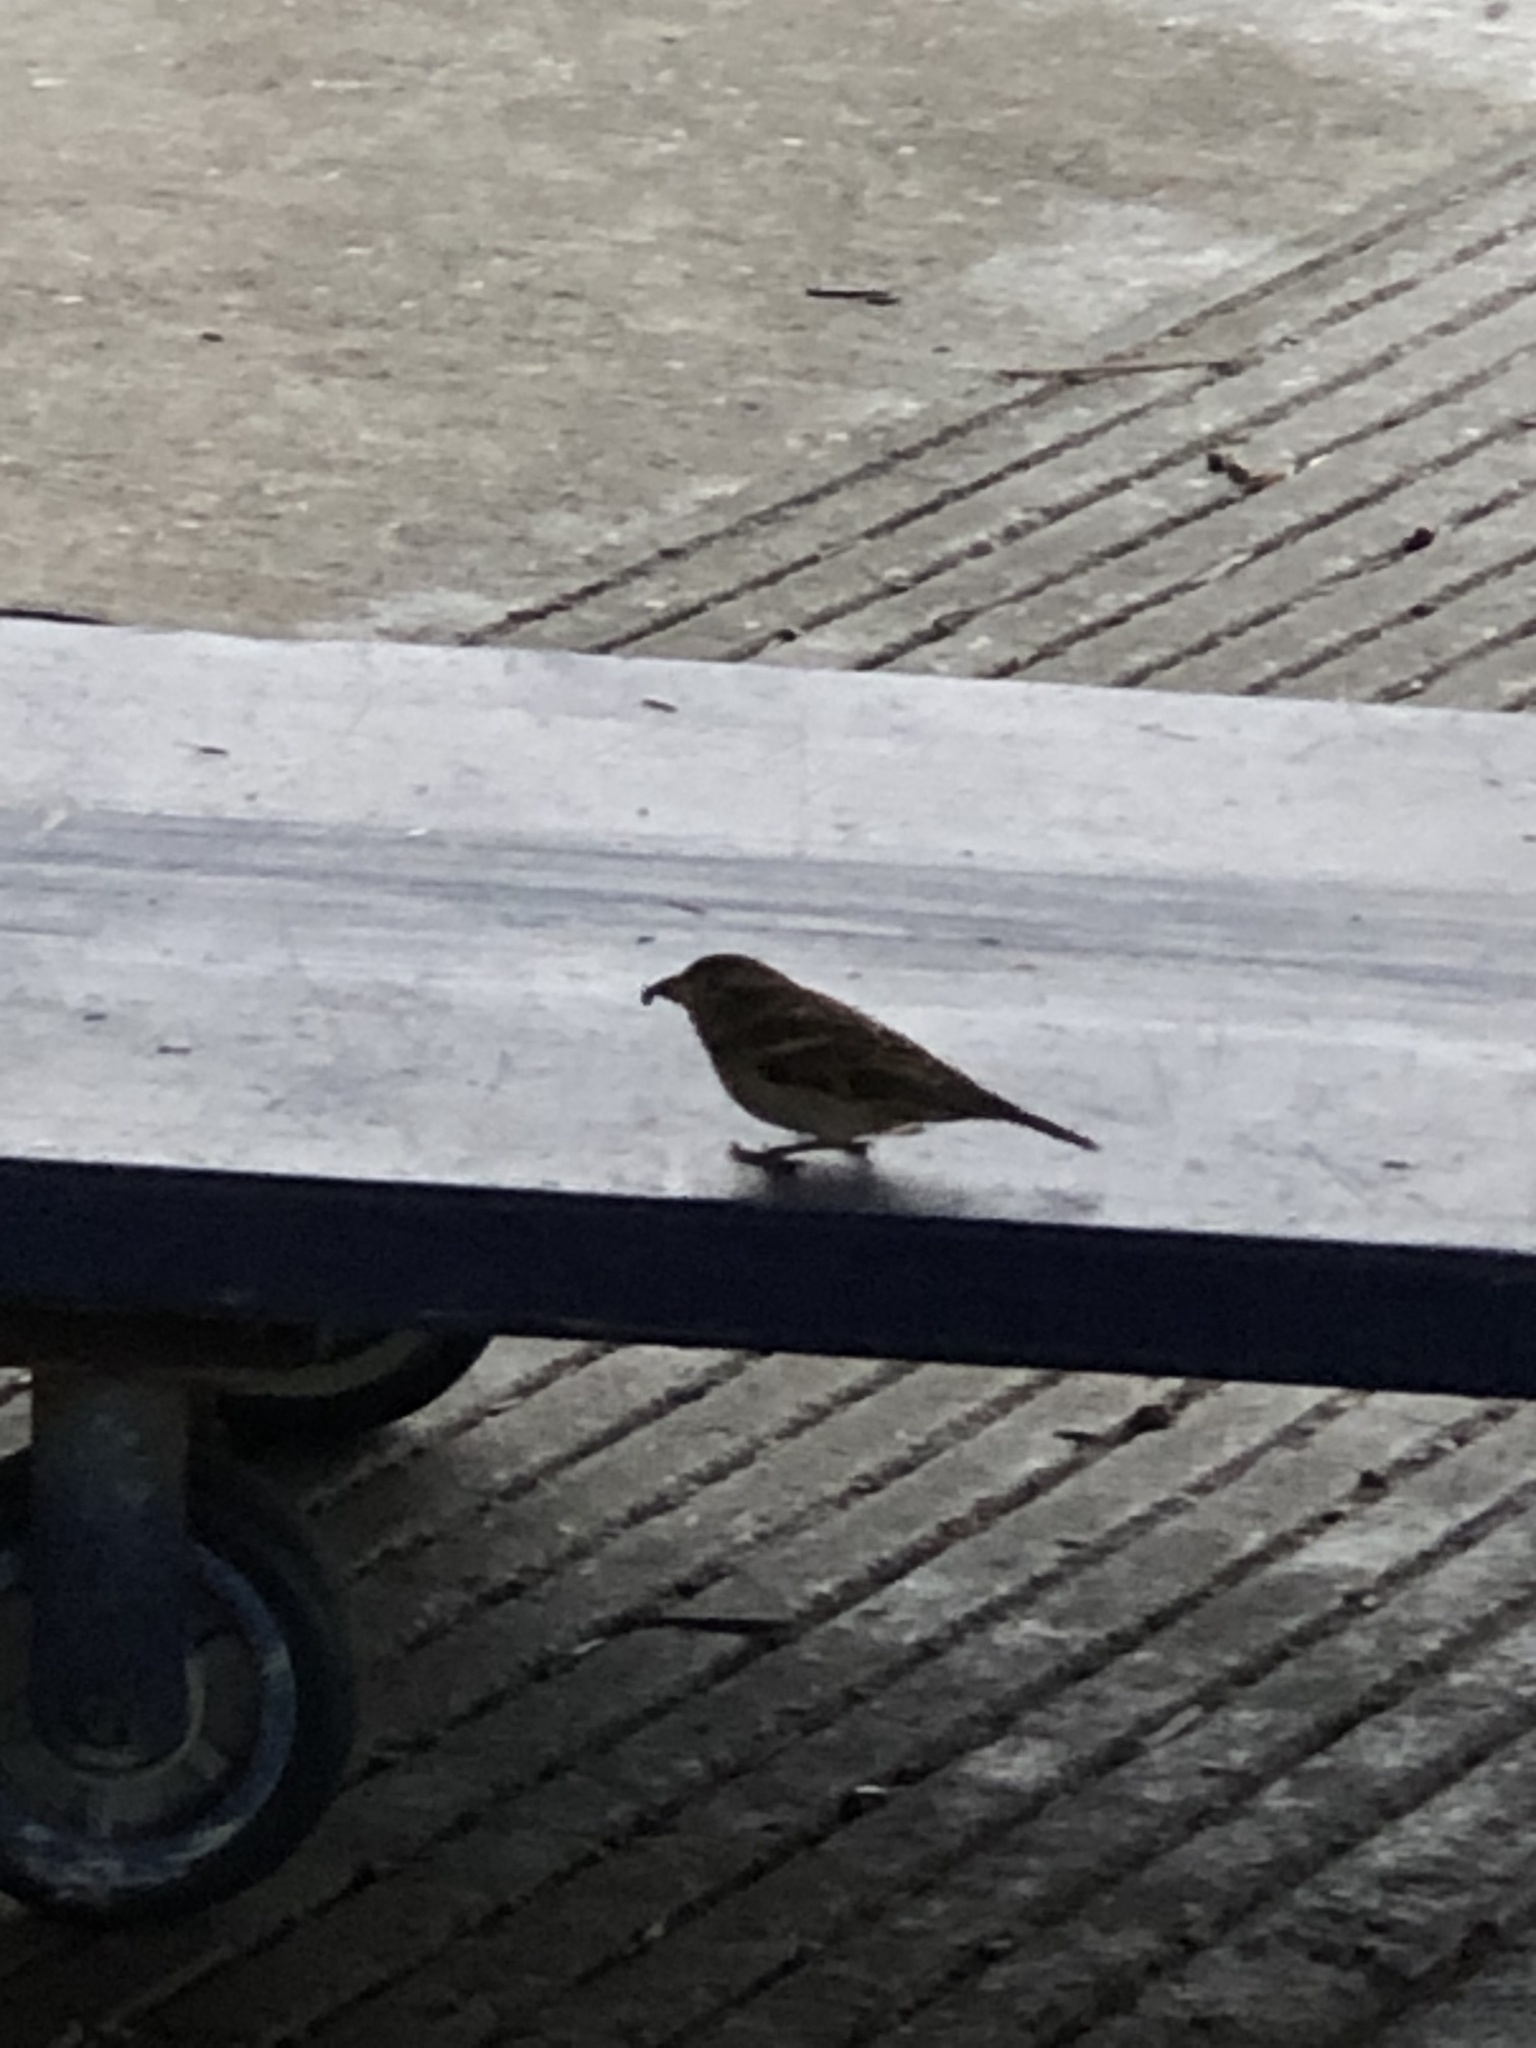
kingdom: Animalia
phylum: Chordata
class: Aves
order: Passeriformes
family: Passeridae
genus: Passer
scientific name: Passer domesticus
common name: House sparrow
